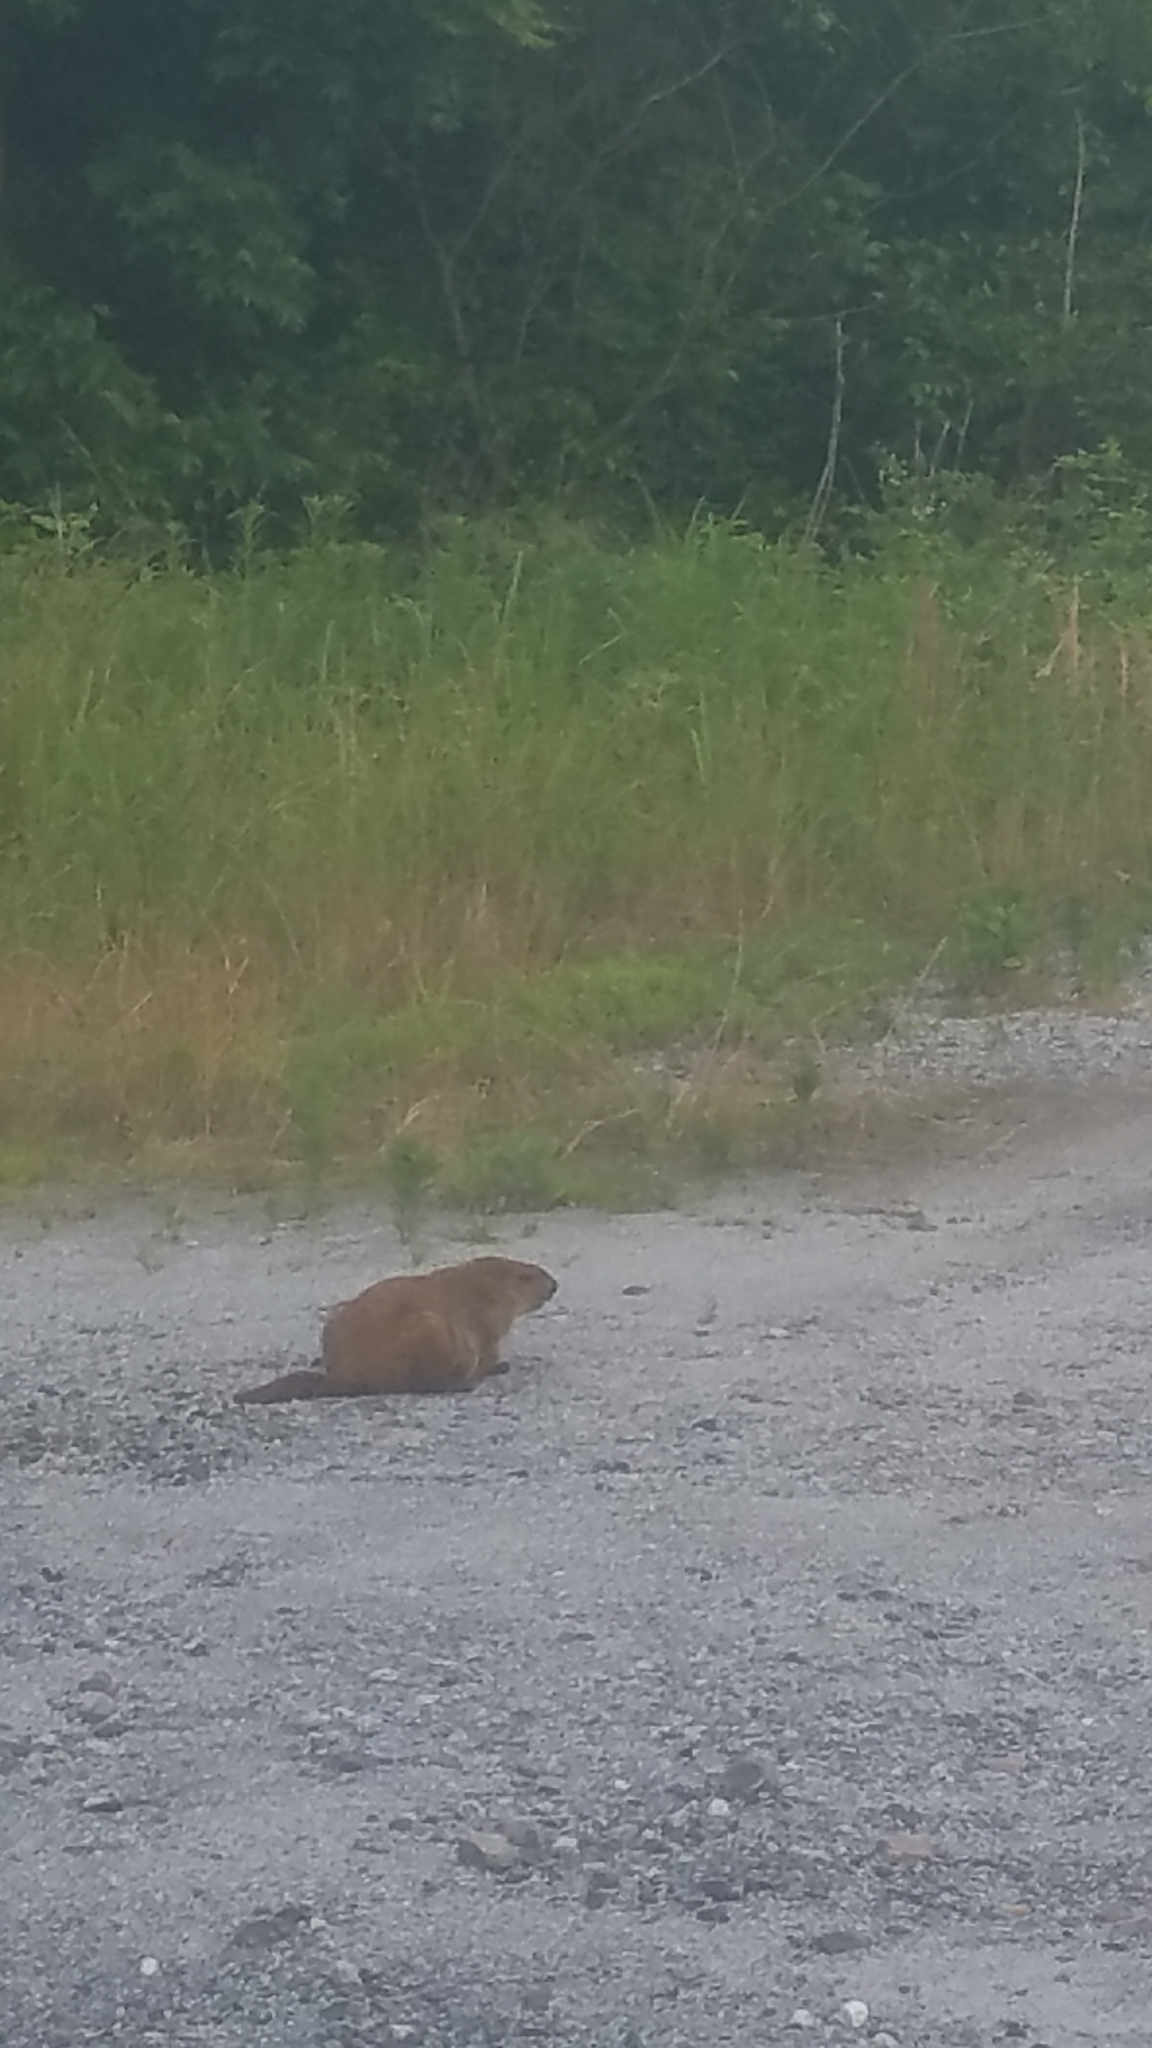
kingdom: Animalia
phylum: Chordata
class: Mammalia
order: Rodentia
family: Sciuridae
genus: Marmota
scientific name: Marmota monax
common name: Groundhog
